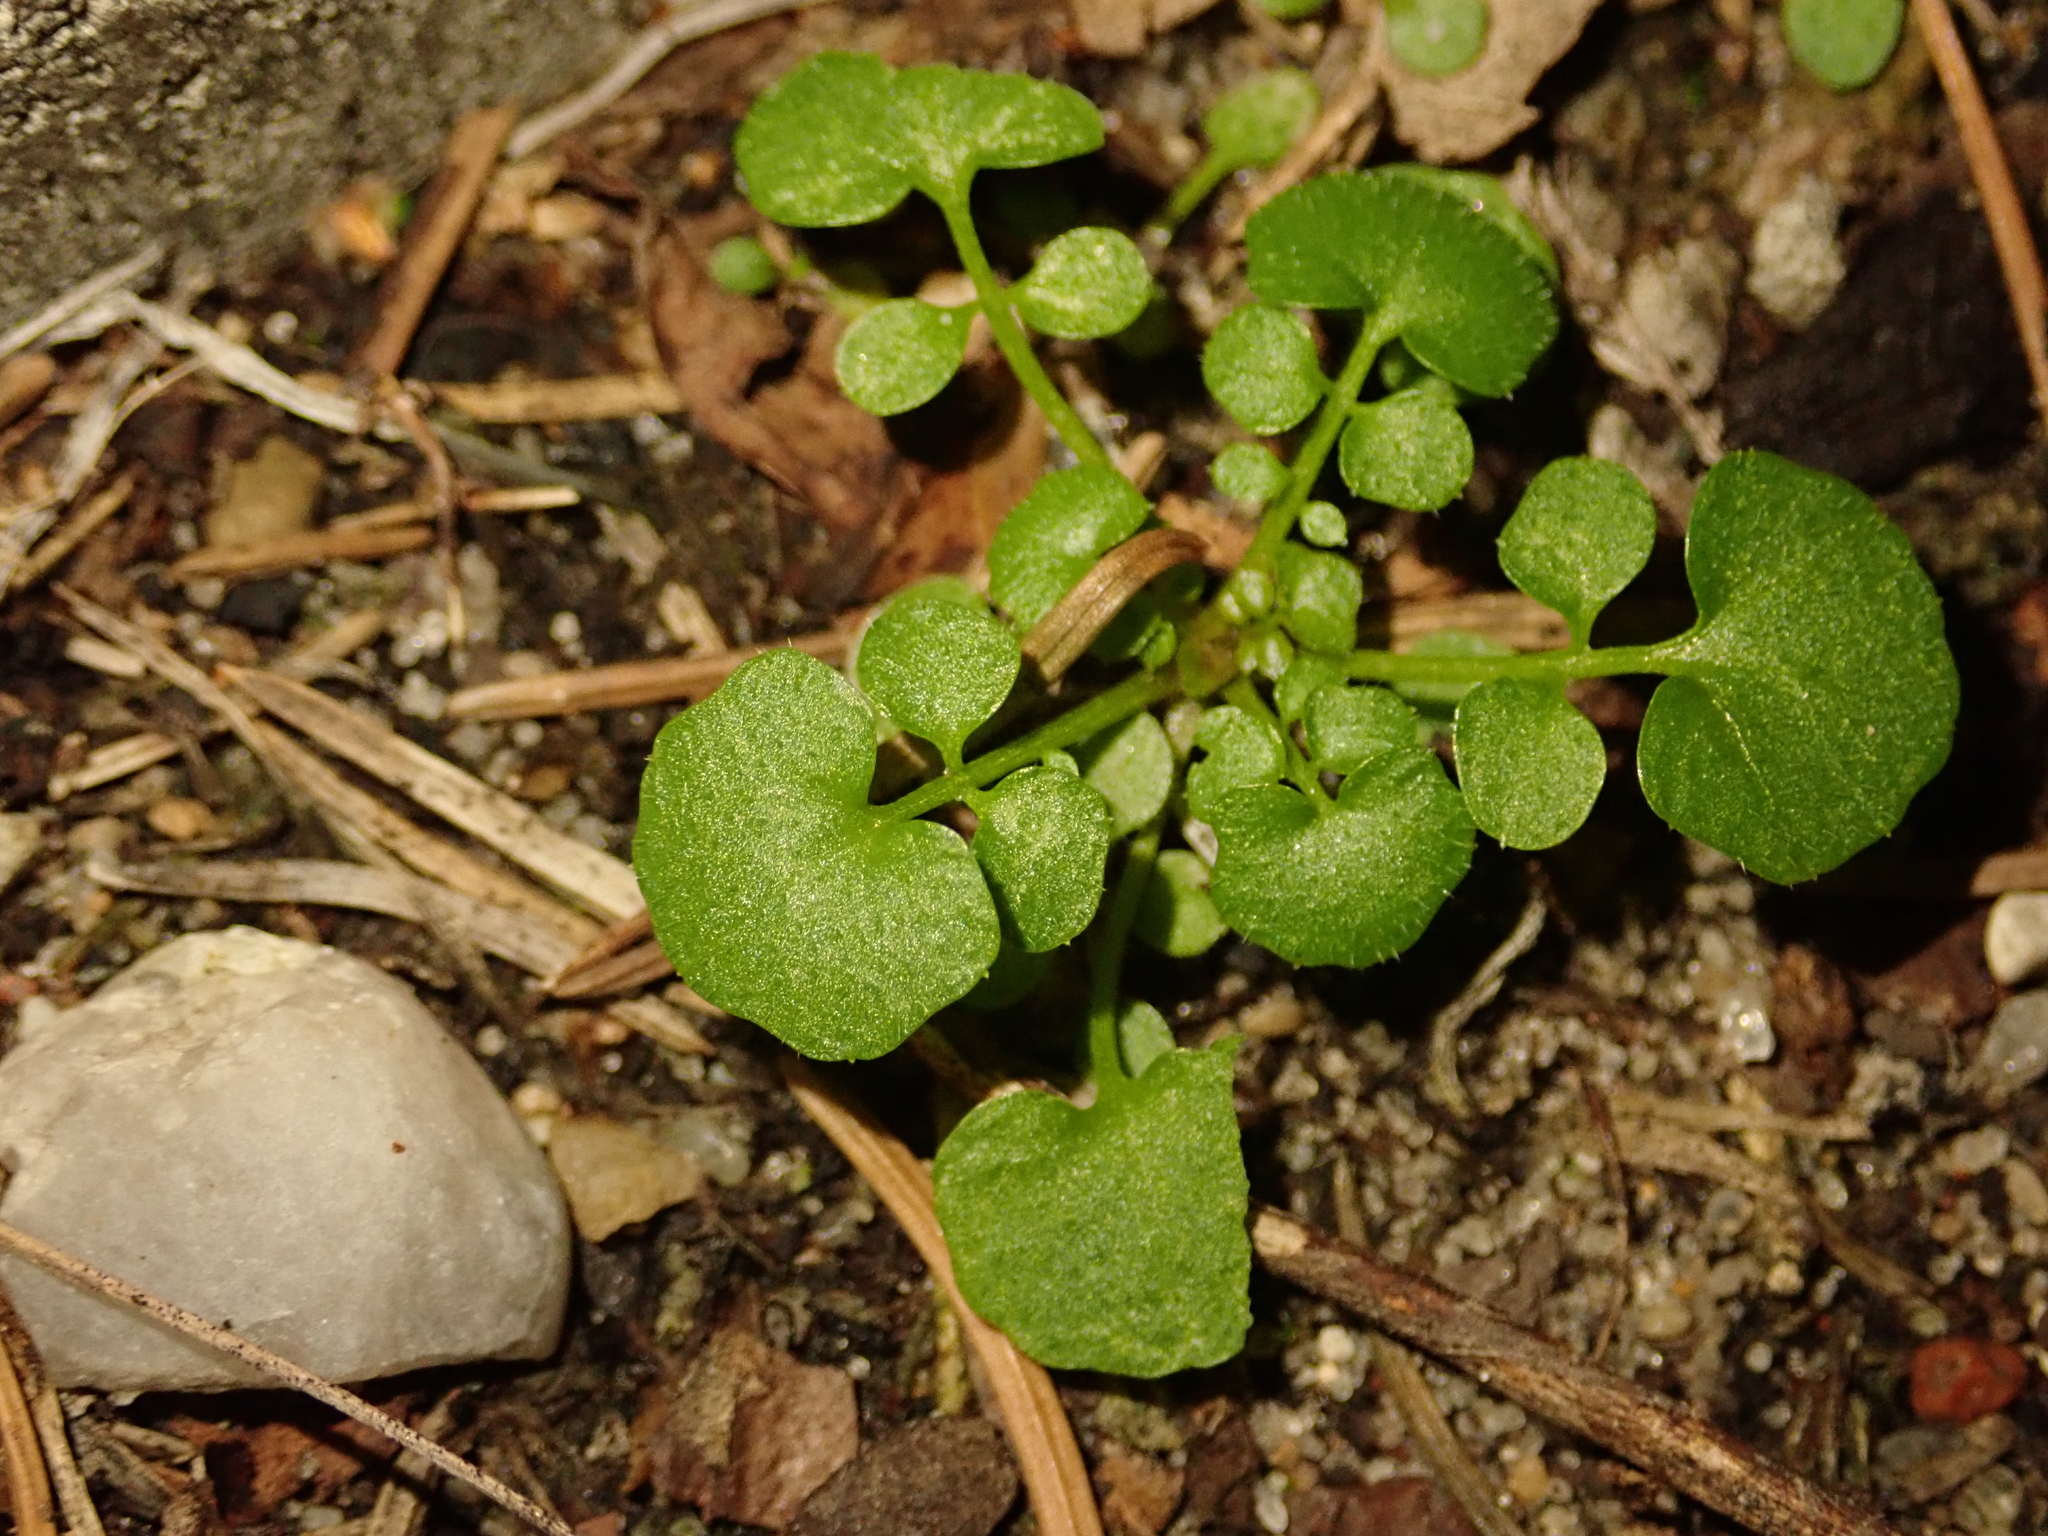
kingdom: Plantae
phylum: Tracheophyta
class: Magnoliopsida
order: Brassicales
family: Brassicaceae
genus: Cardamine
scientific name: Cardamine hirsuta
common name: Hairy bittercress
